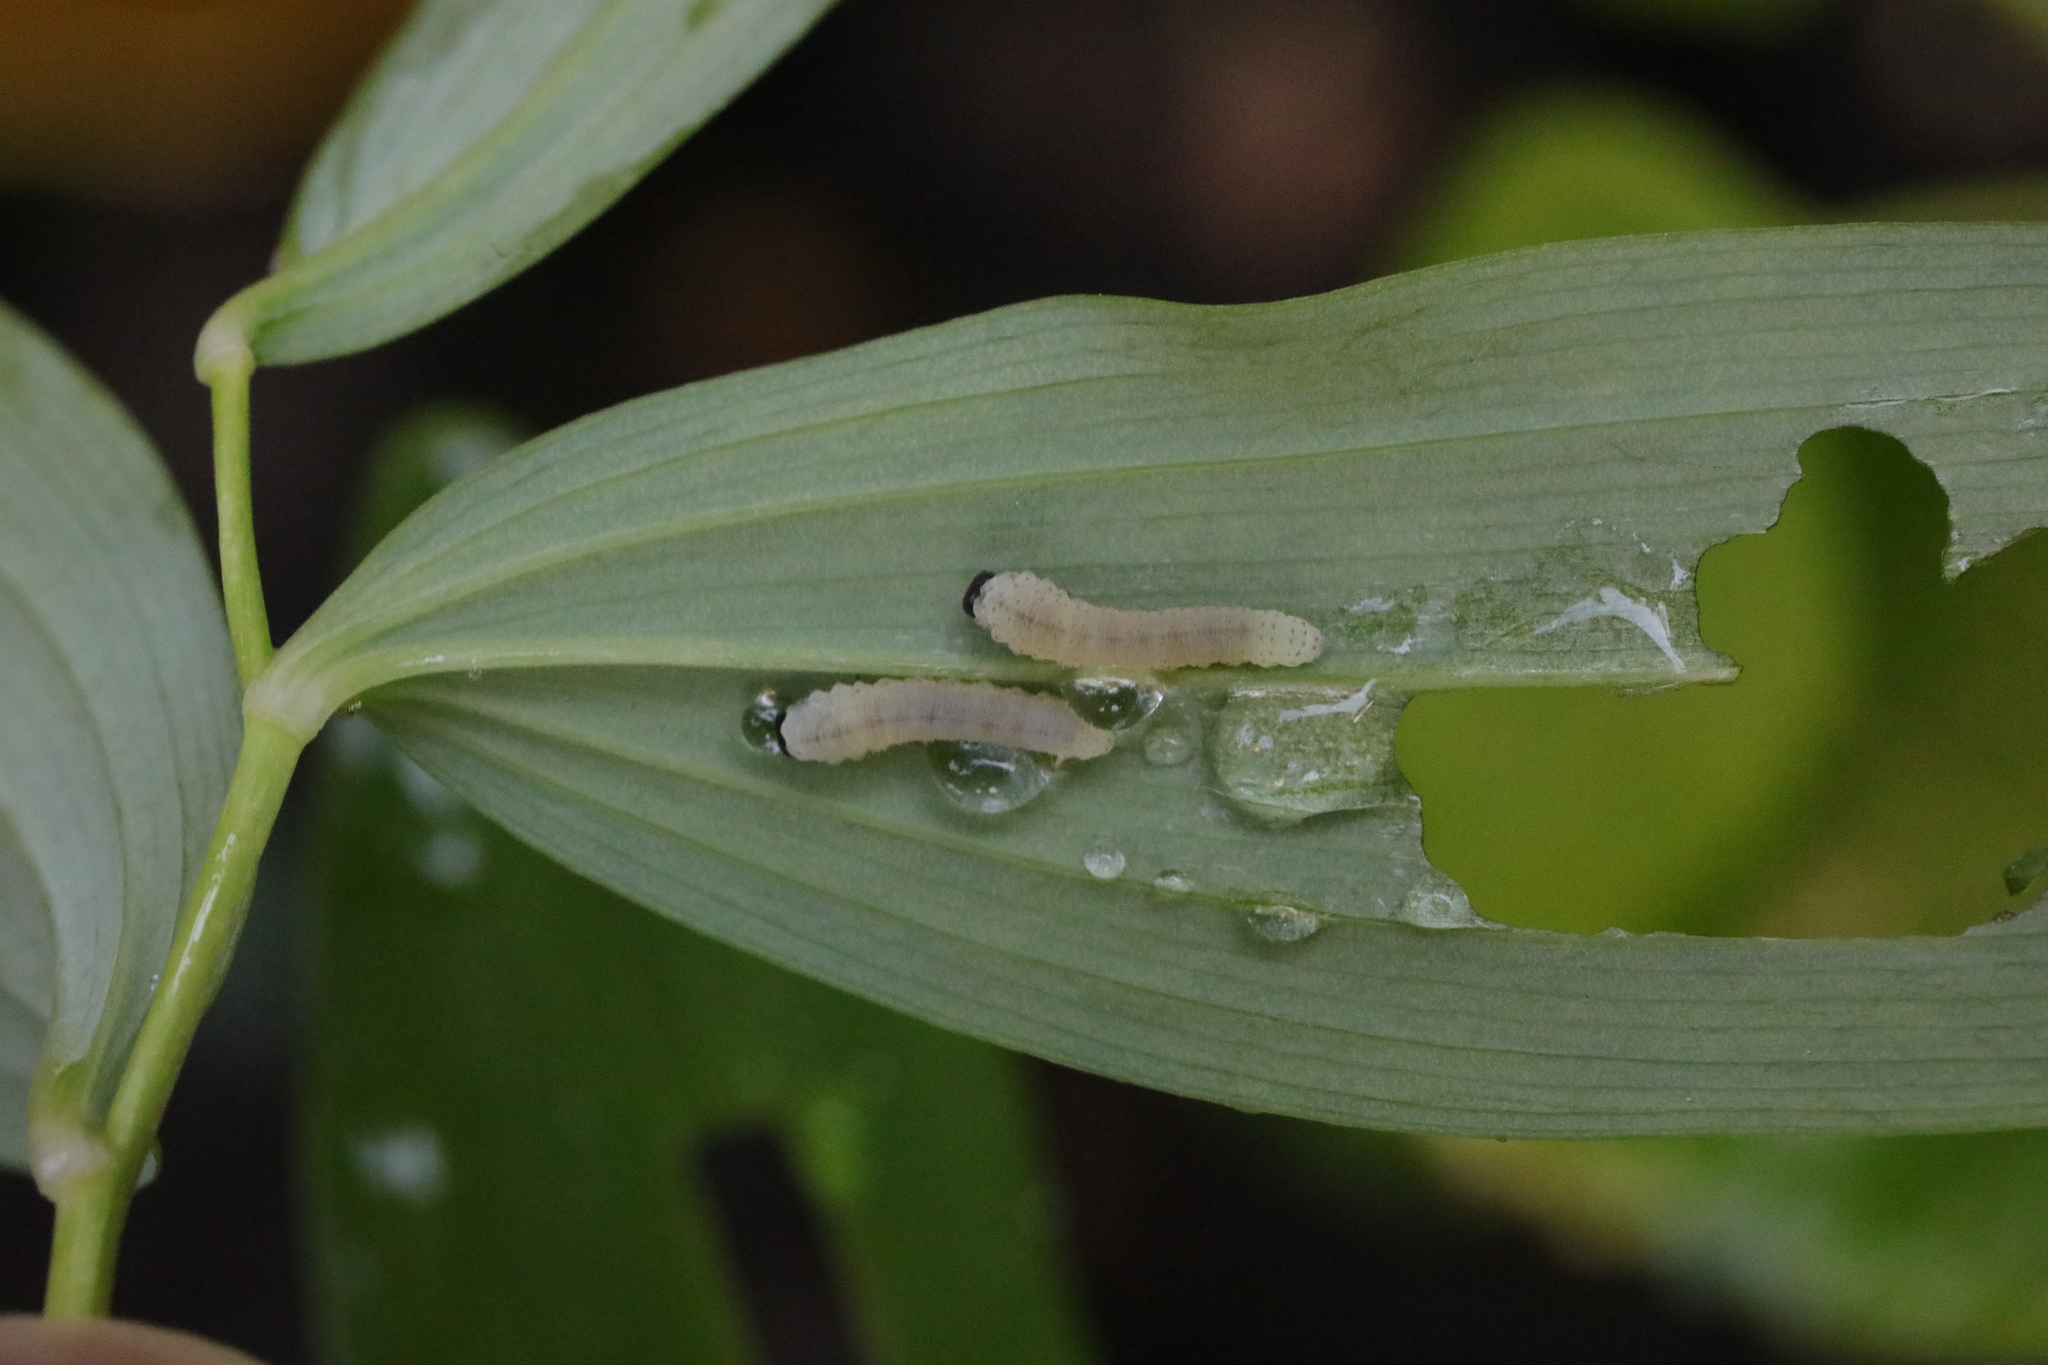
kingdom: Animalia
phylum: Arthropoda
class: Insecta
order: Hymenoptera
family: Tenthredinidae
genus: Phymatocera
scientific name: Phymatocera aterrima
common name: Solomon's-seal sawfly
